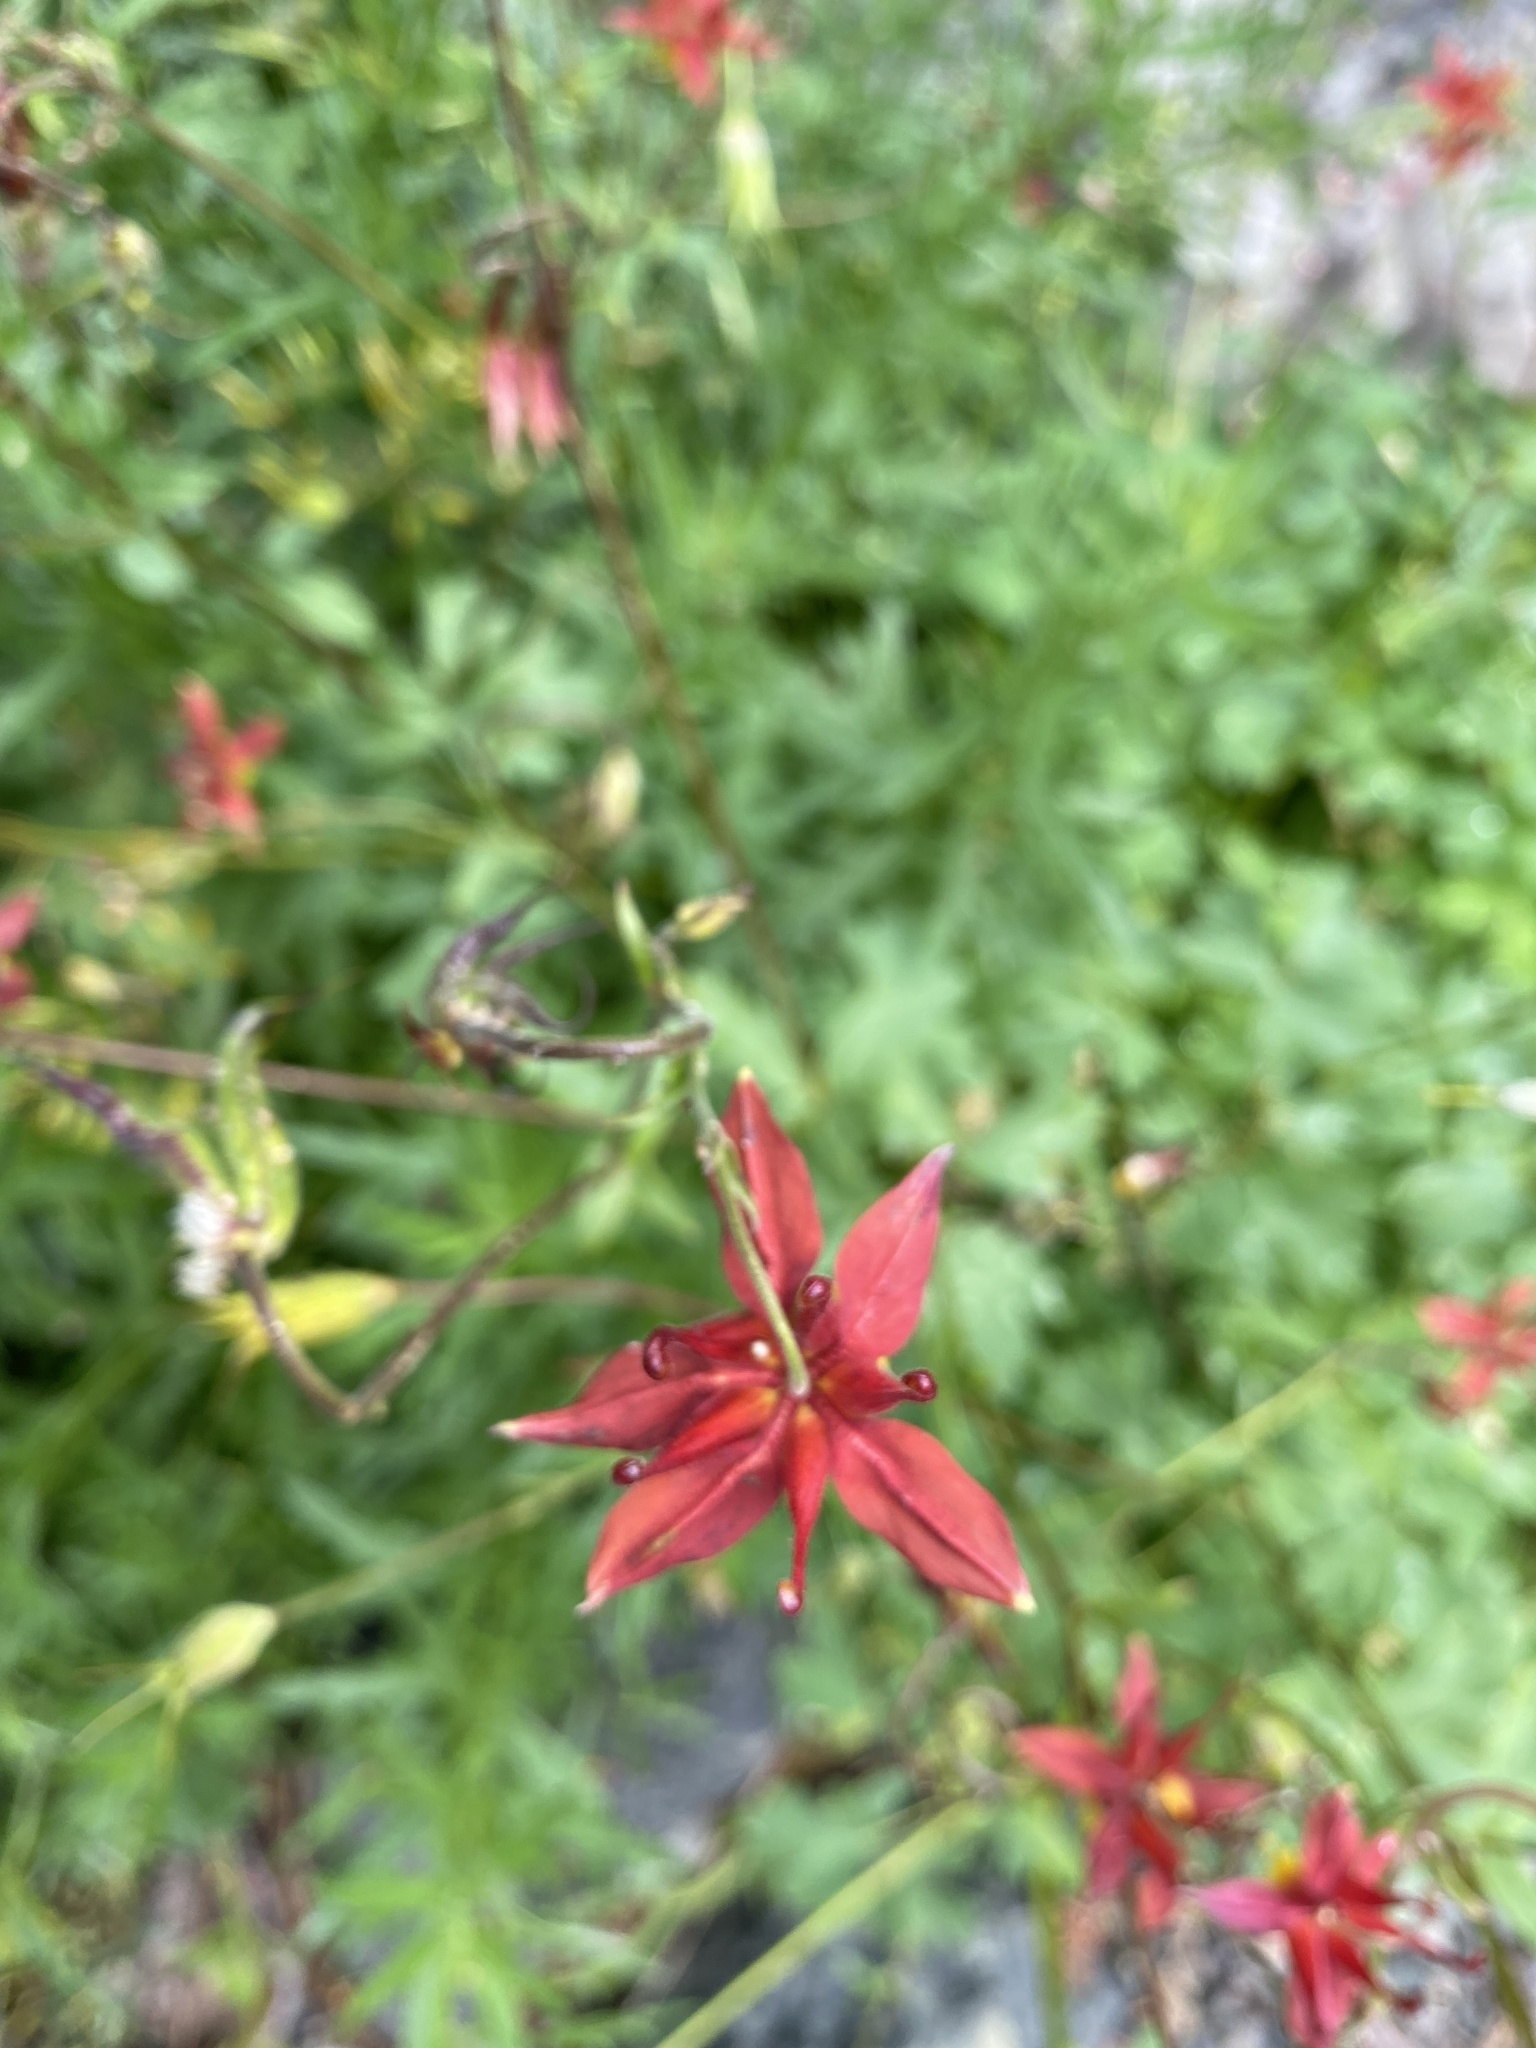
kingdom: Plantae
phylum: Tracheophyta
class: Magnoliopsida
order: Ranunculales
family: Ranunculaceae
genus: Aquilegia
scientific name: Aquilegia formosa
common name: Sitka columbine
